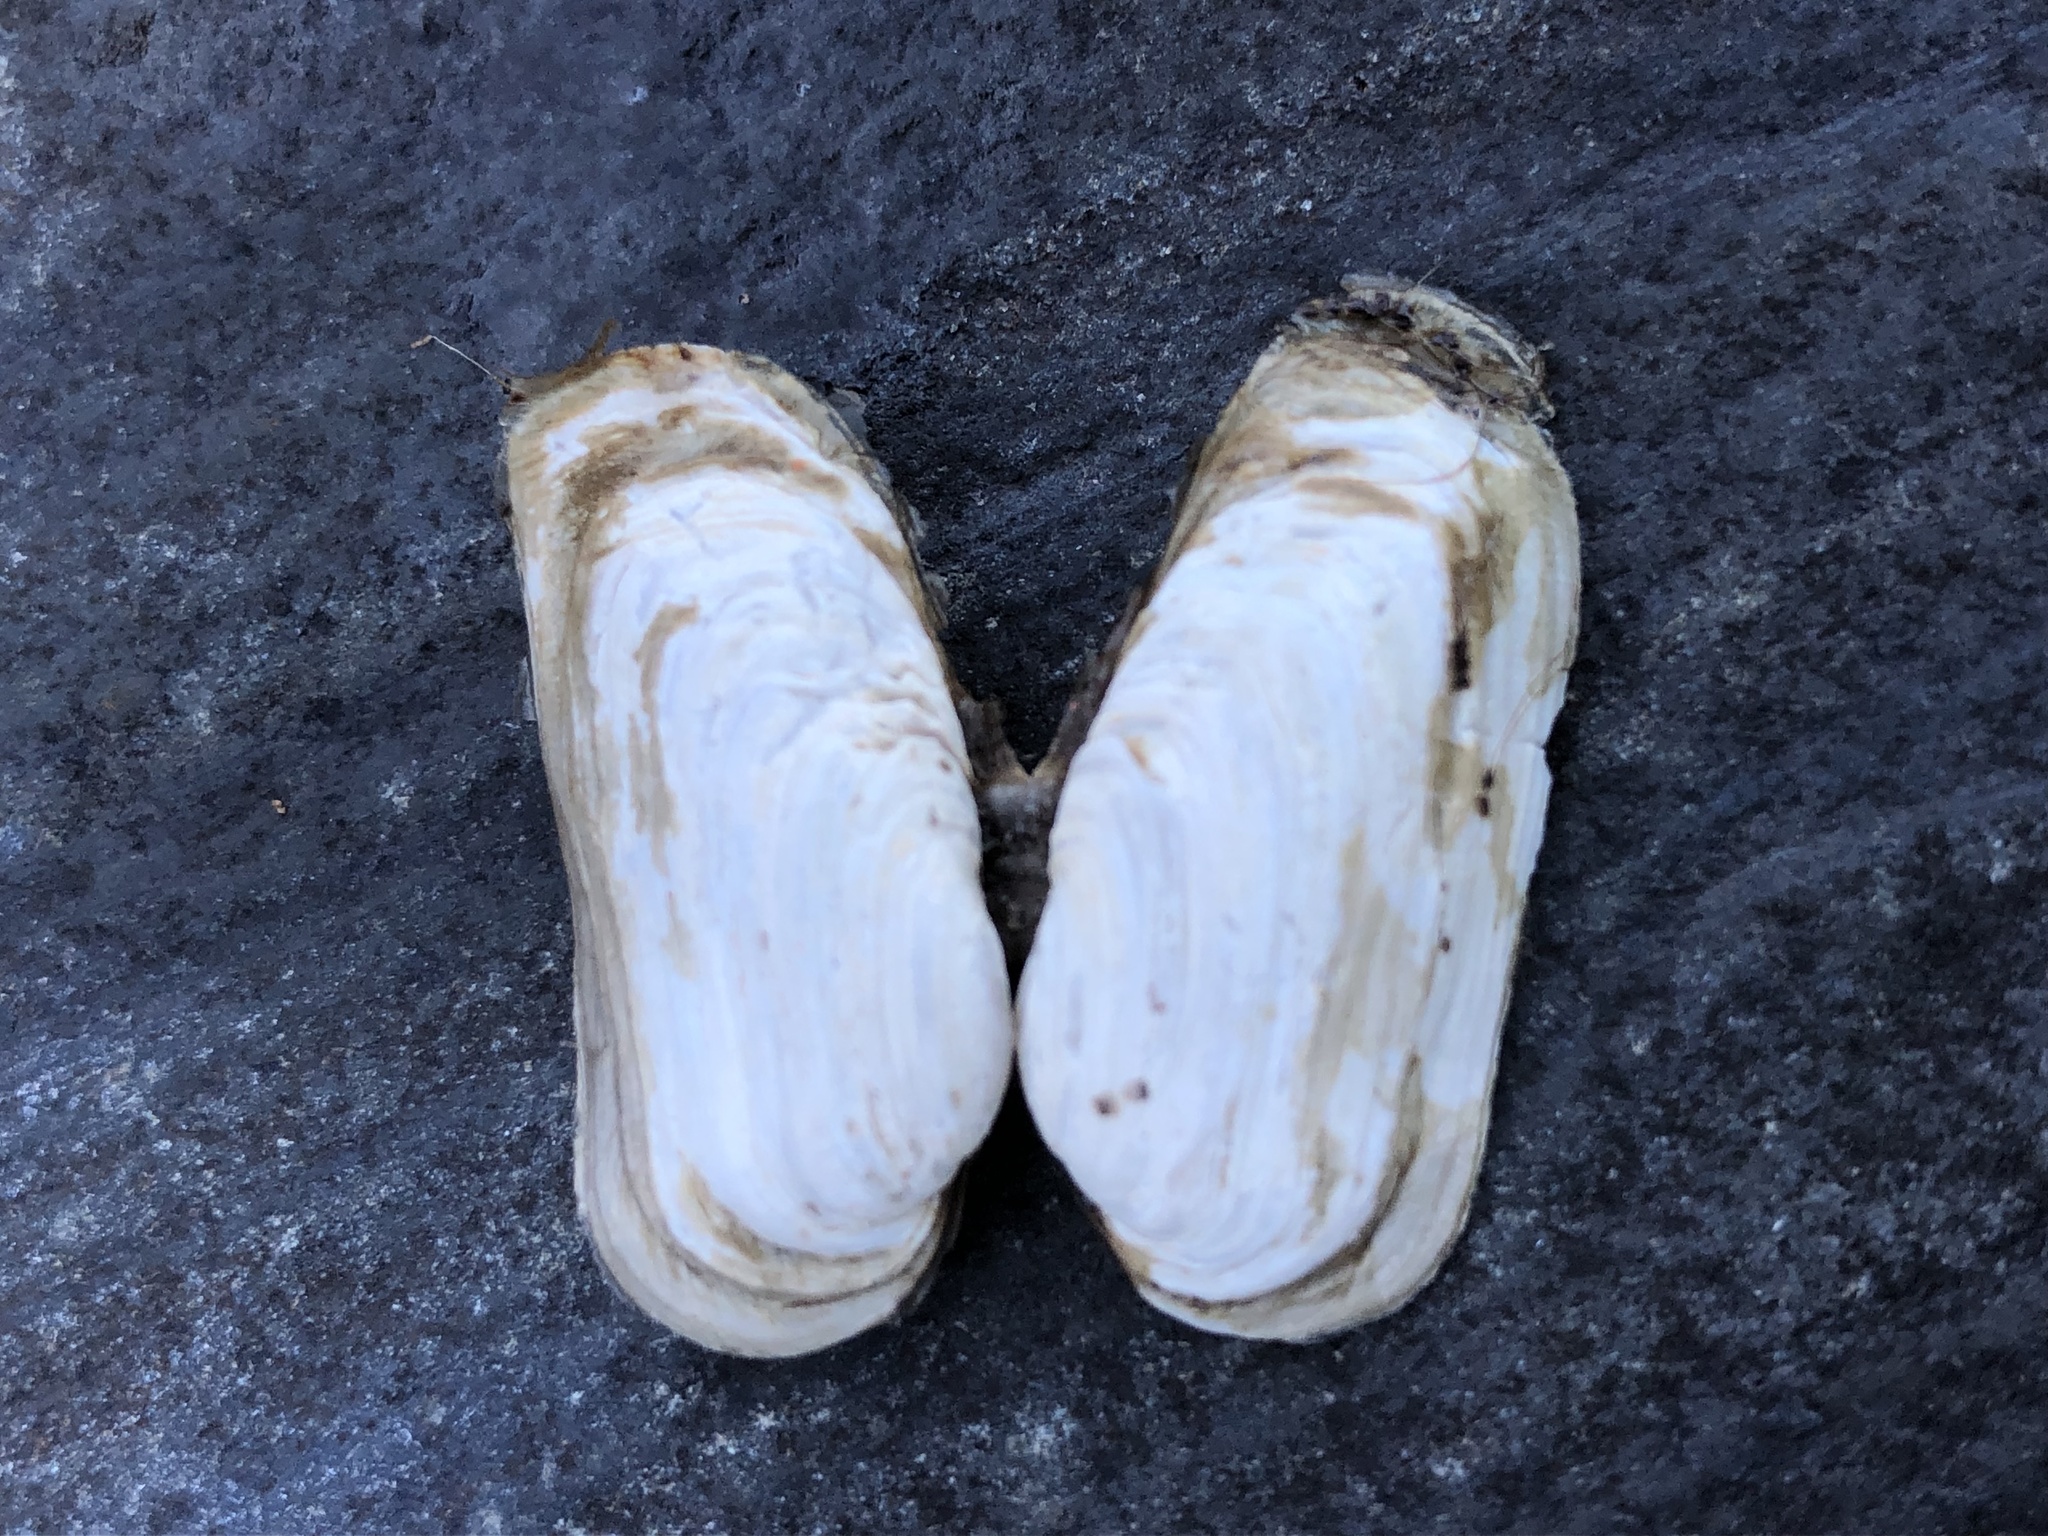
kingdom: Animalia
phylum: Mollusca
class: Bivalvia
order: Adapedonta
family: Hiatellidae
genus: Hiatella
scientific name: Hiatella arctica
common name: Arctic hiatella
